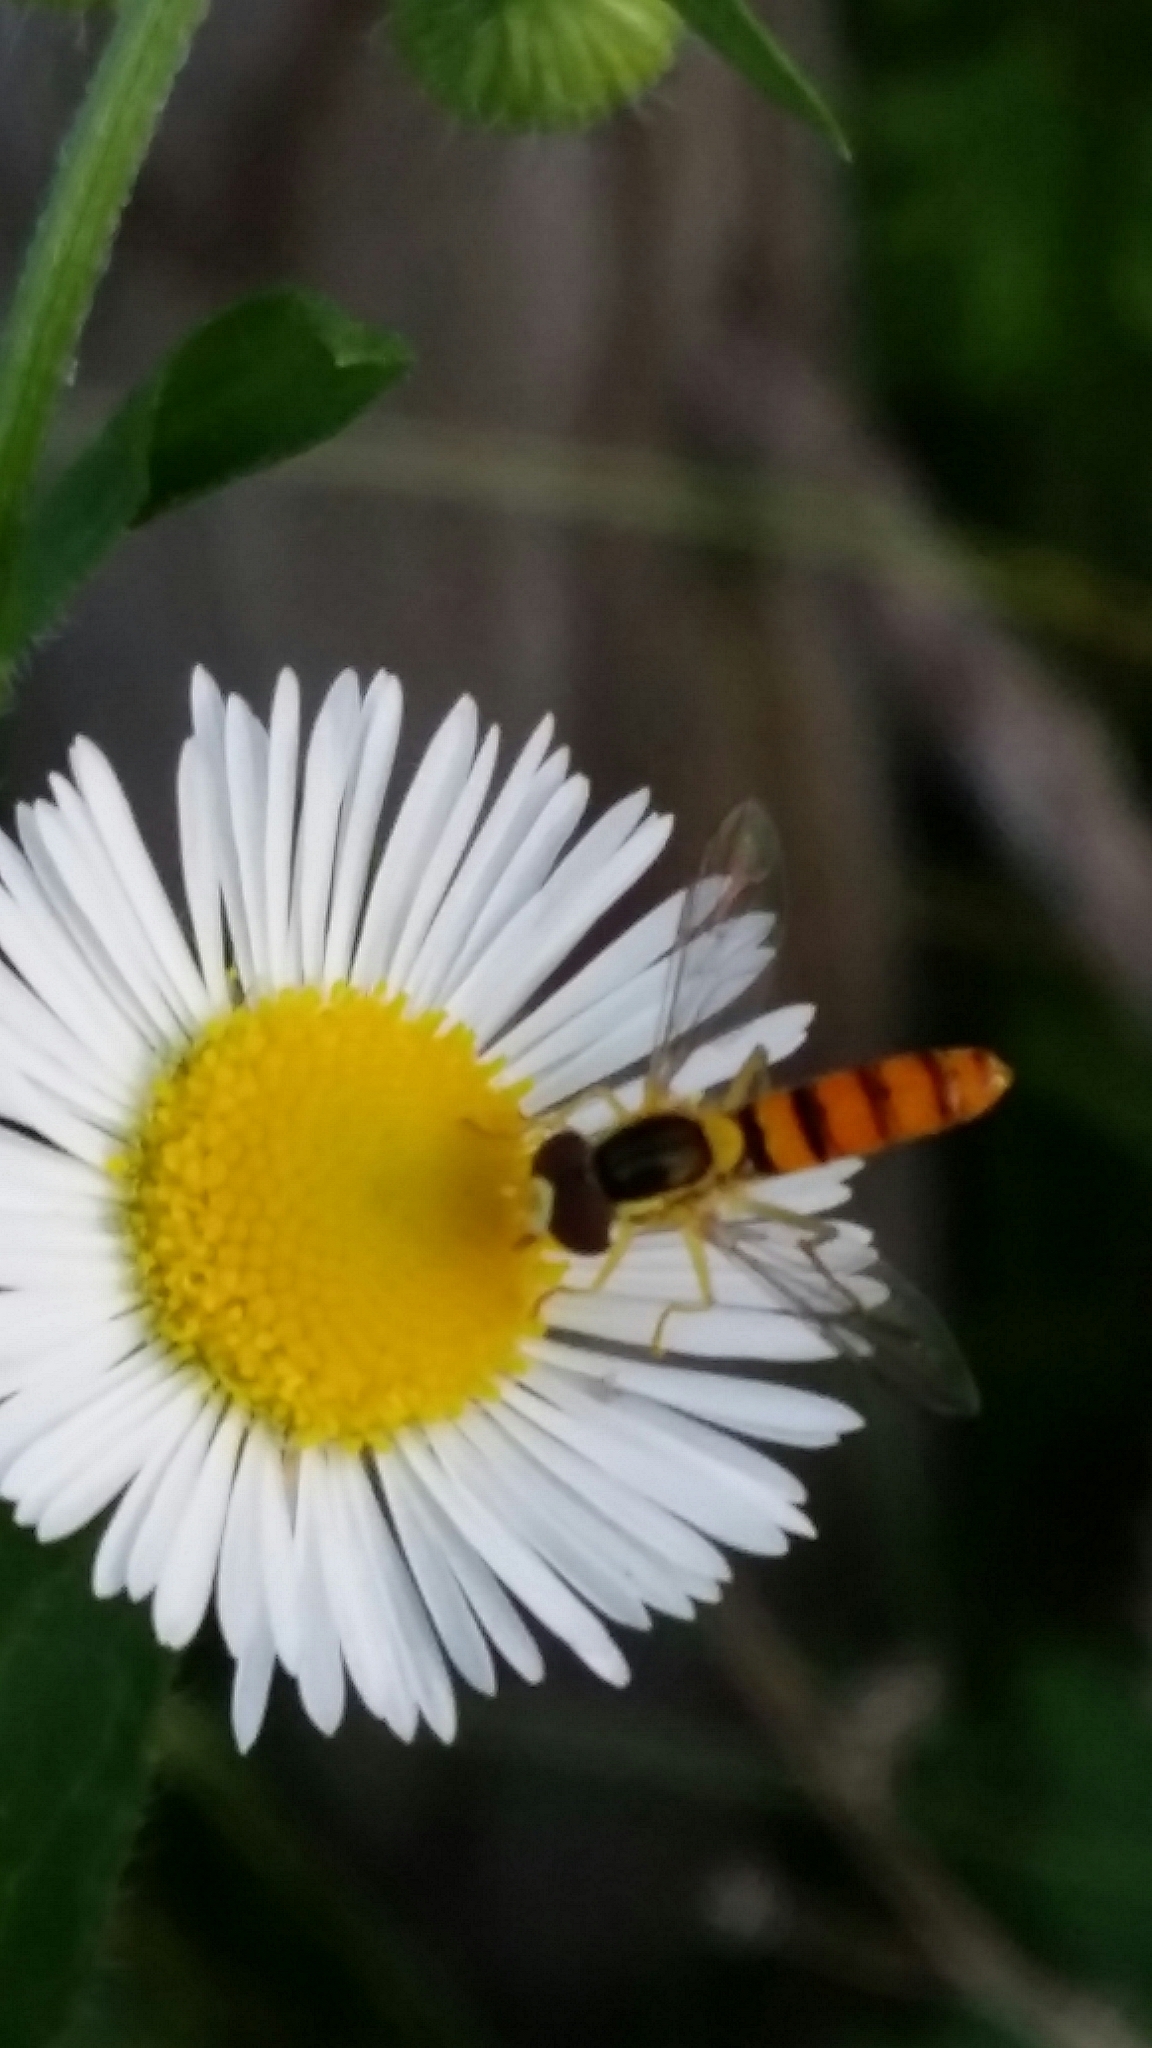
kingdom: Animalia
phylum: Arthropoda
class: Insecta
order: Diptera
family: Syrphidae
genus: Sphaerophoria
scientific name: Sphaerophoria scripta
